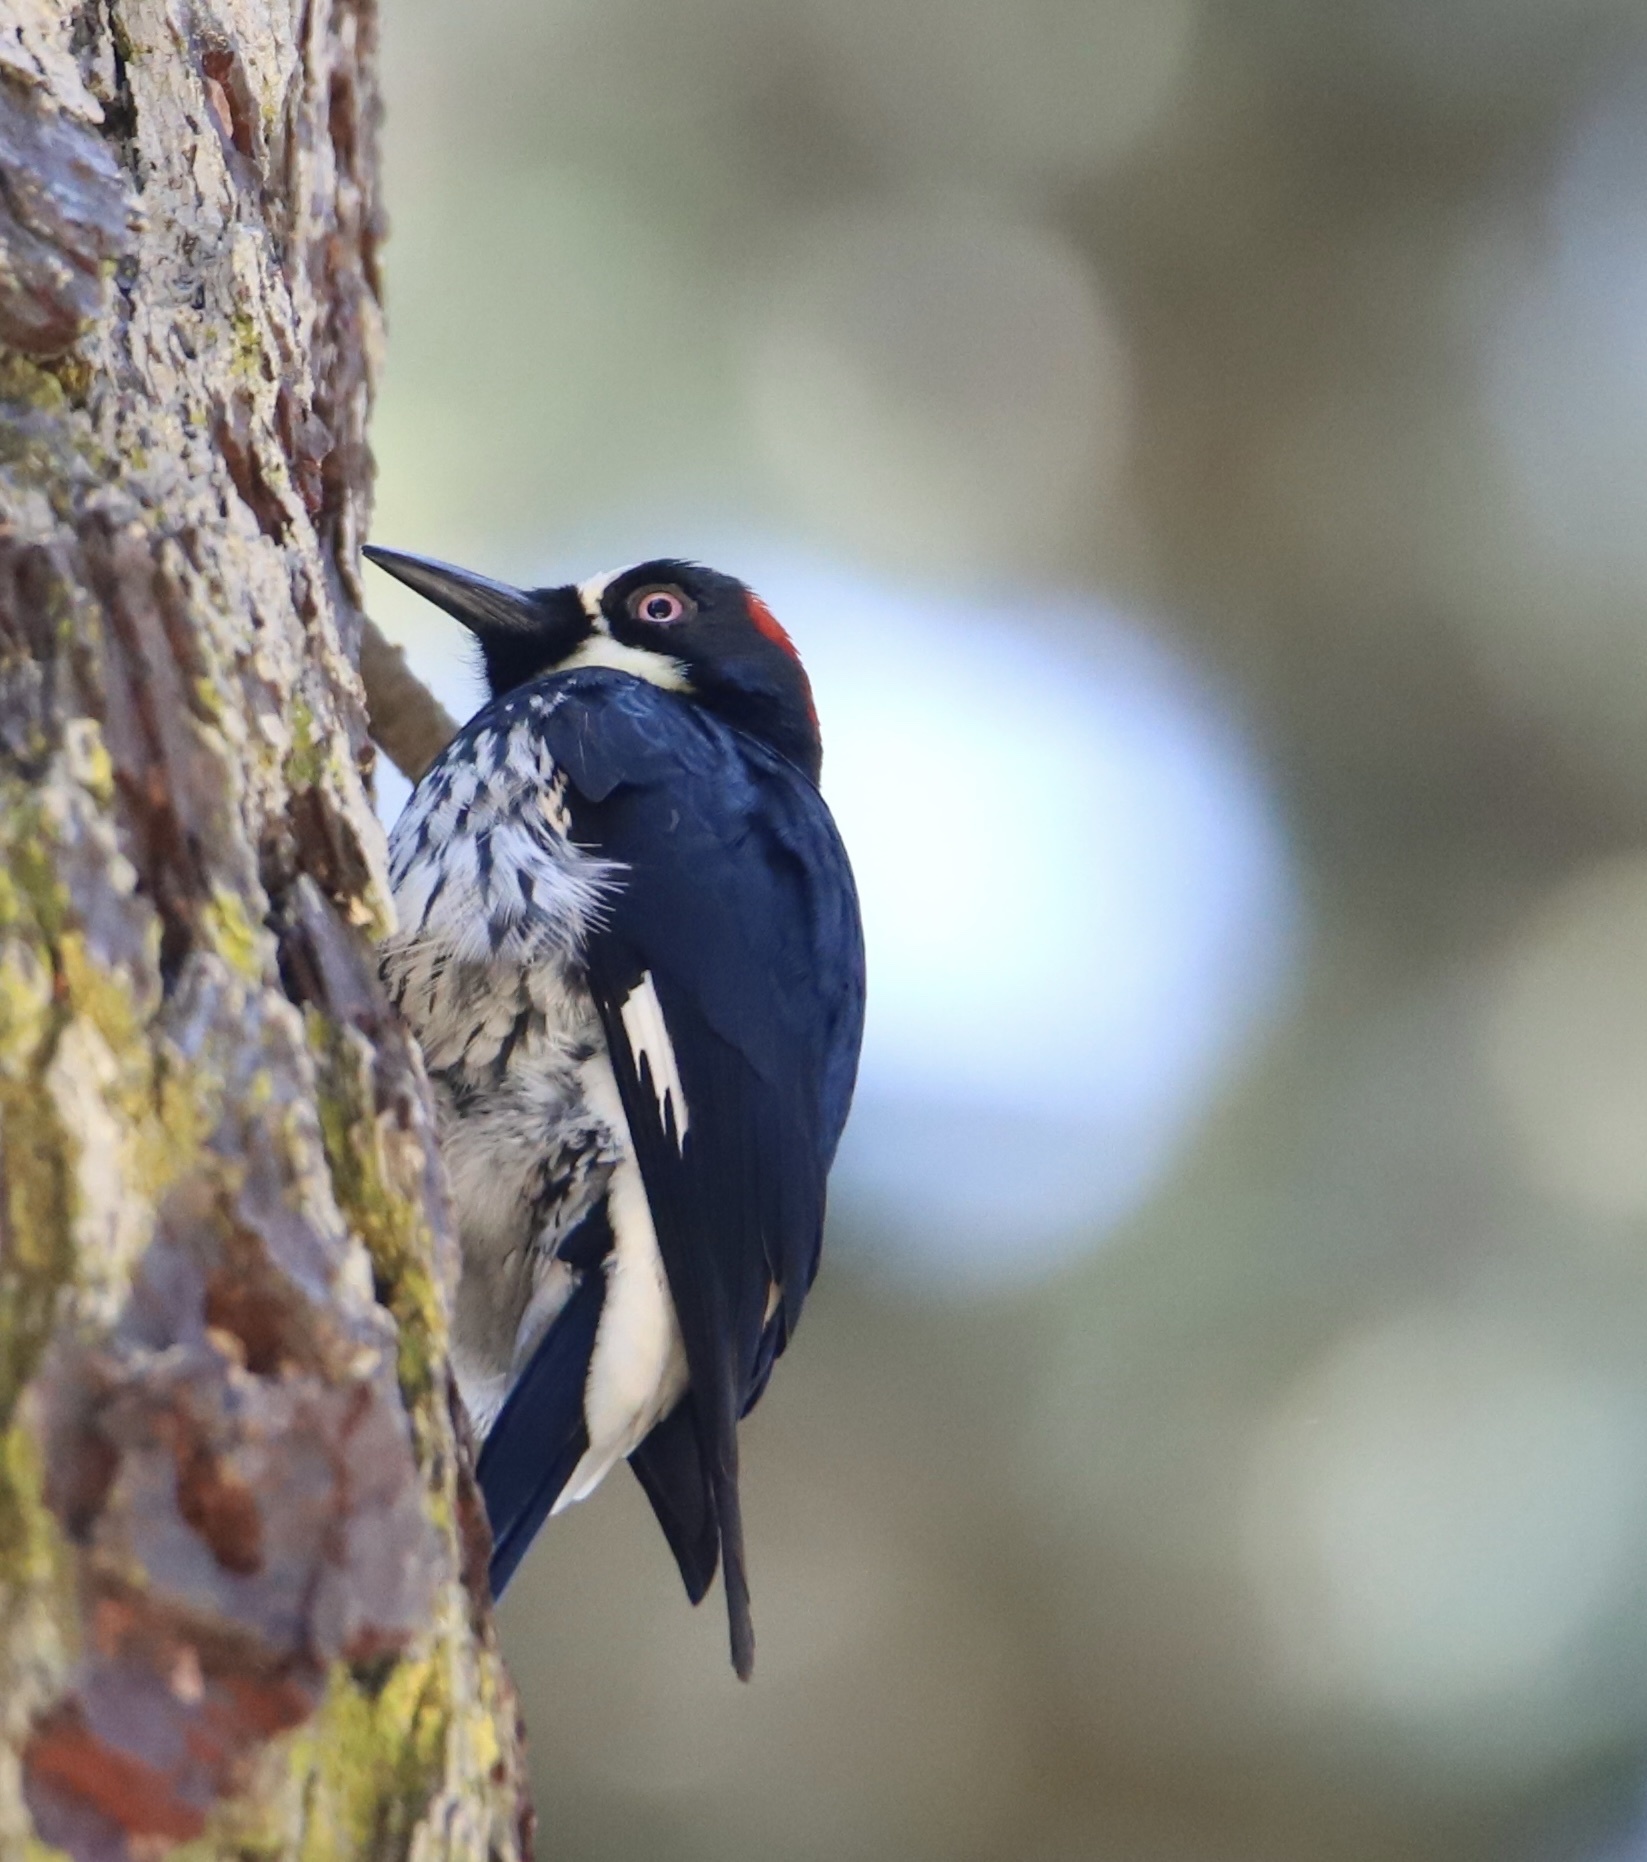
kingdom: Animalia
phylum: Chordata
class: Aves
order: Piciformes
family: Picidae
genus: Melanerpes
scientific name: Melanerpes formicivorus
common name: Acorn woodpecker
